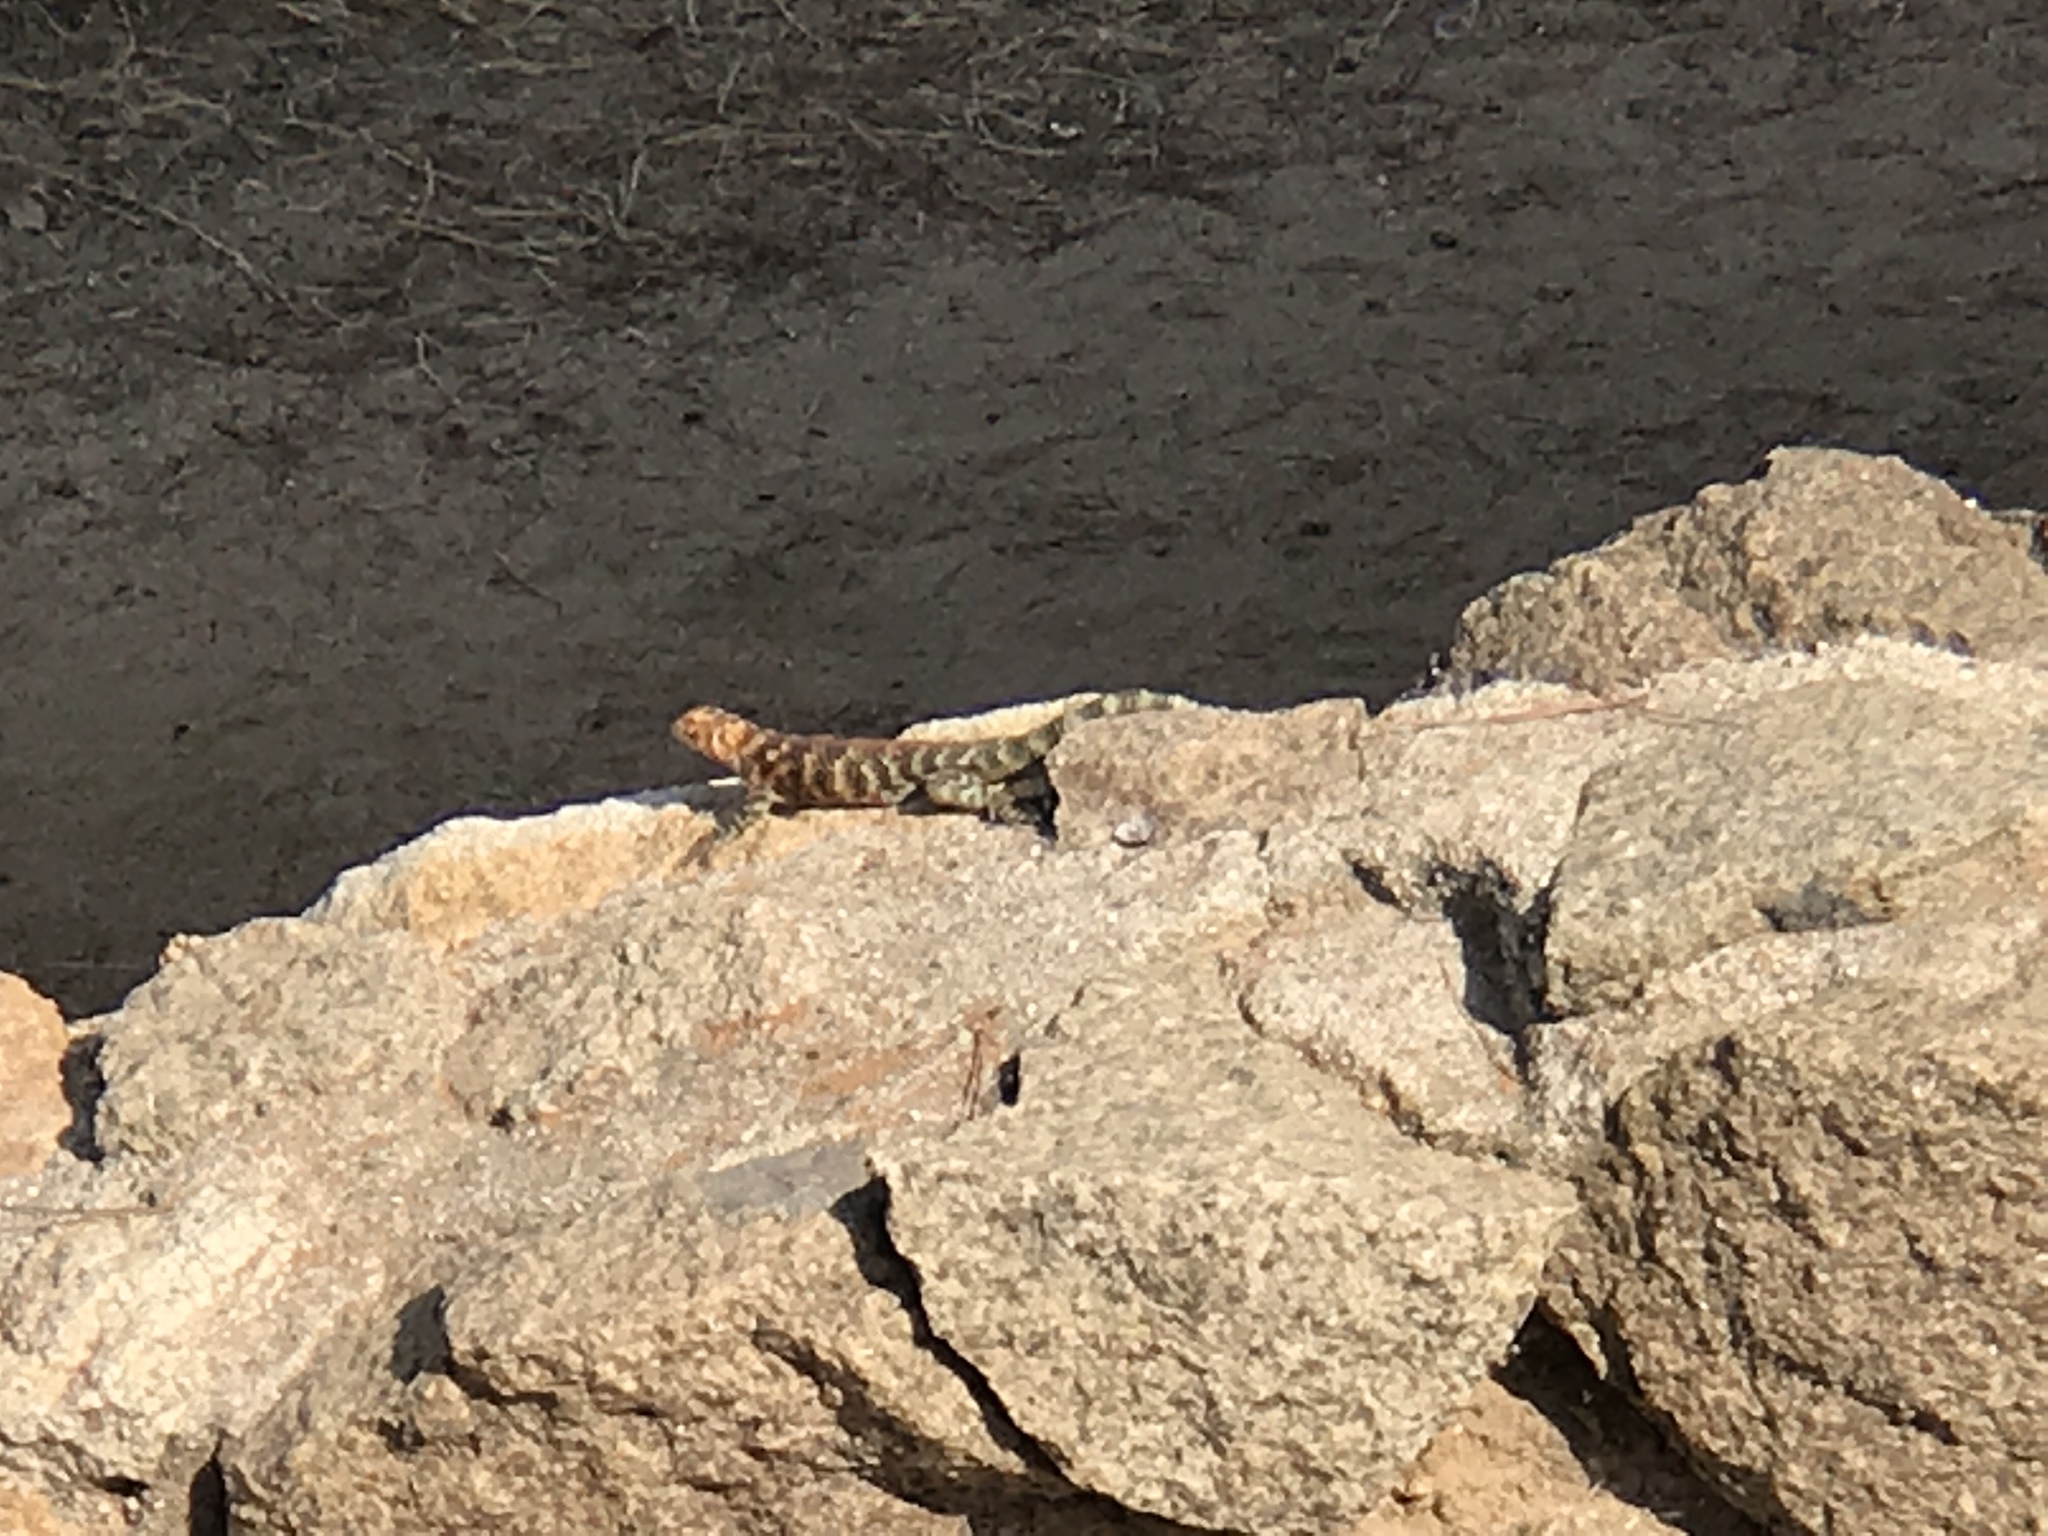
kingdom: Animalia
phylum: Chordata
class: Squamata
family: Phrynosomatidae
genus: Sceloporus
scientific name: Sceloporus orcutti
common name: Granite spiny lizard
